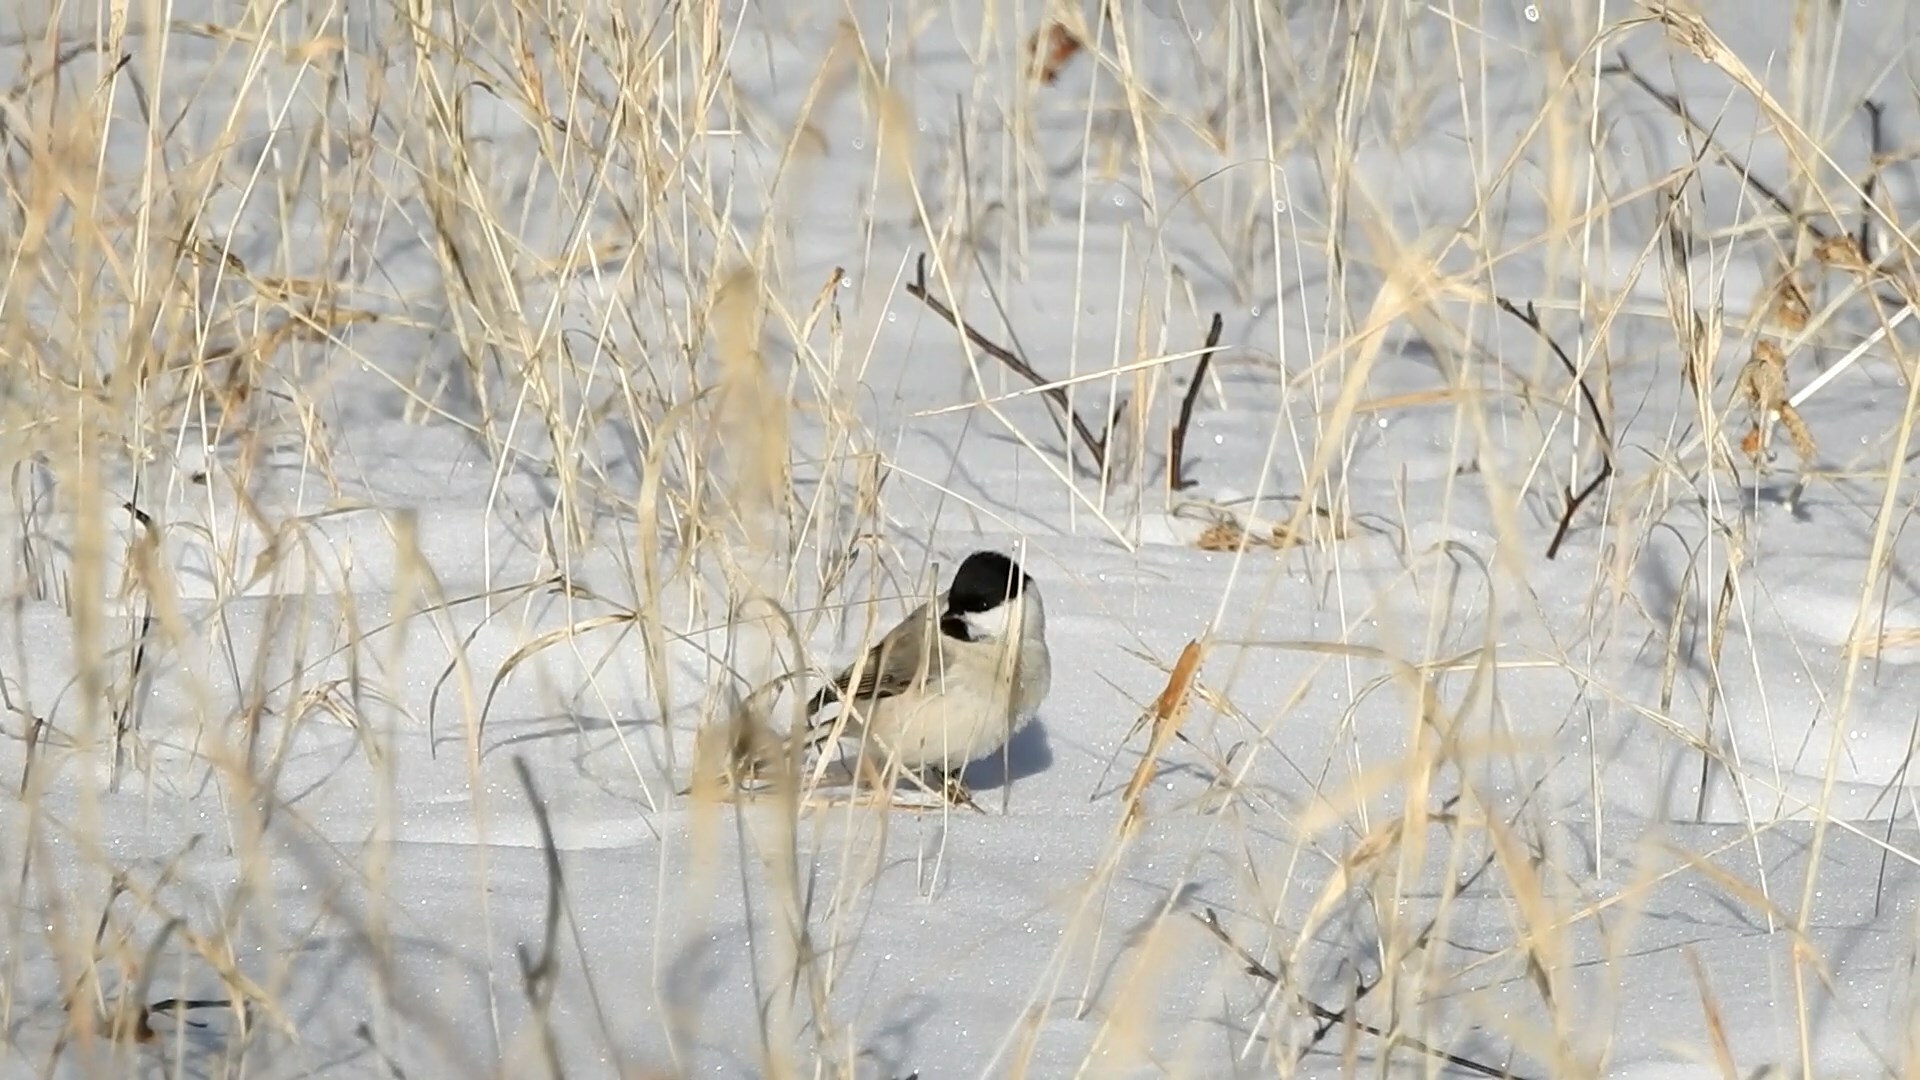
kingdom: Animalia
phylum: Chordata
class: Aves
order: Passeriformes
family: Paridae
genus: Poecile
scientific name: Poecile palustris
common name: Marsh tit
